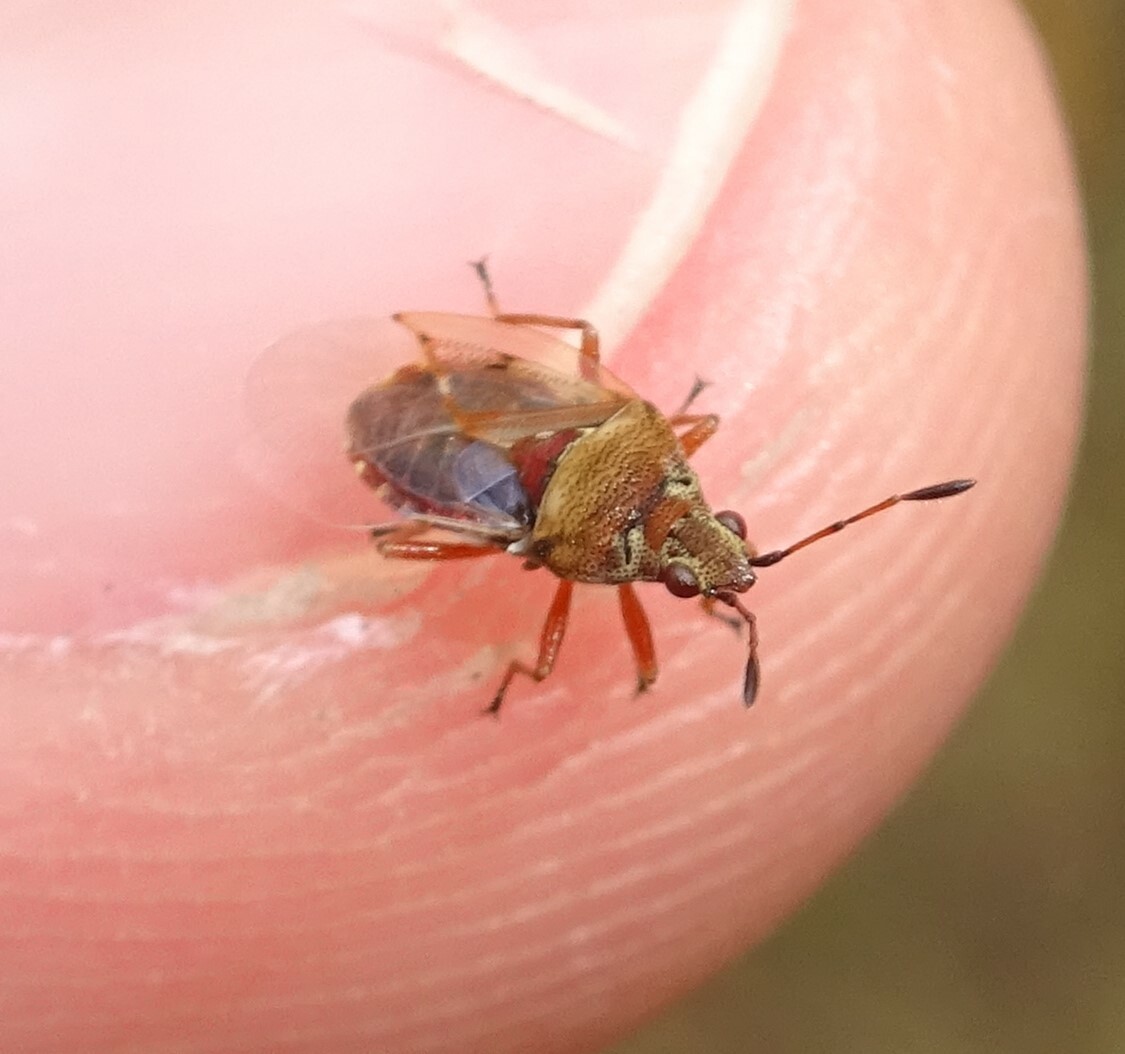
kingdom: Animalia
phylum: Arthropoda
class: Insecta
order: Hemiptera
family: Lygaeidae
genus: Kleidocerys
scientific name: Kleidocerys resedae
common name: Birch catkin bug
